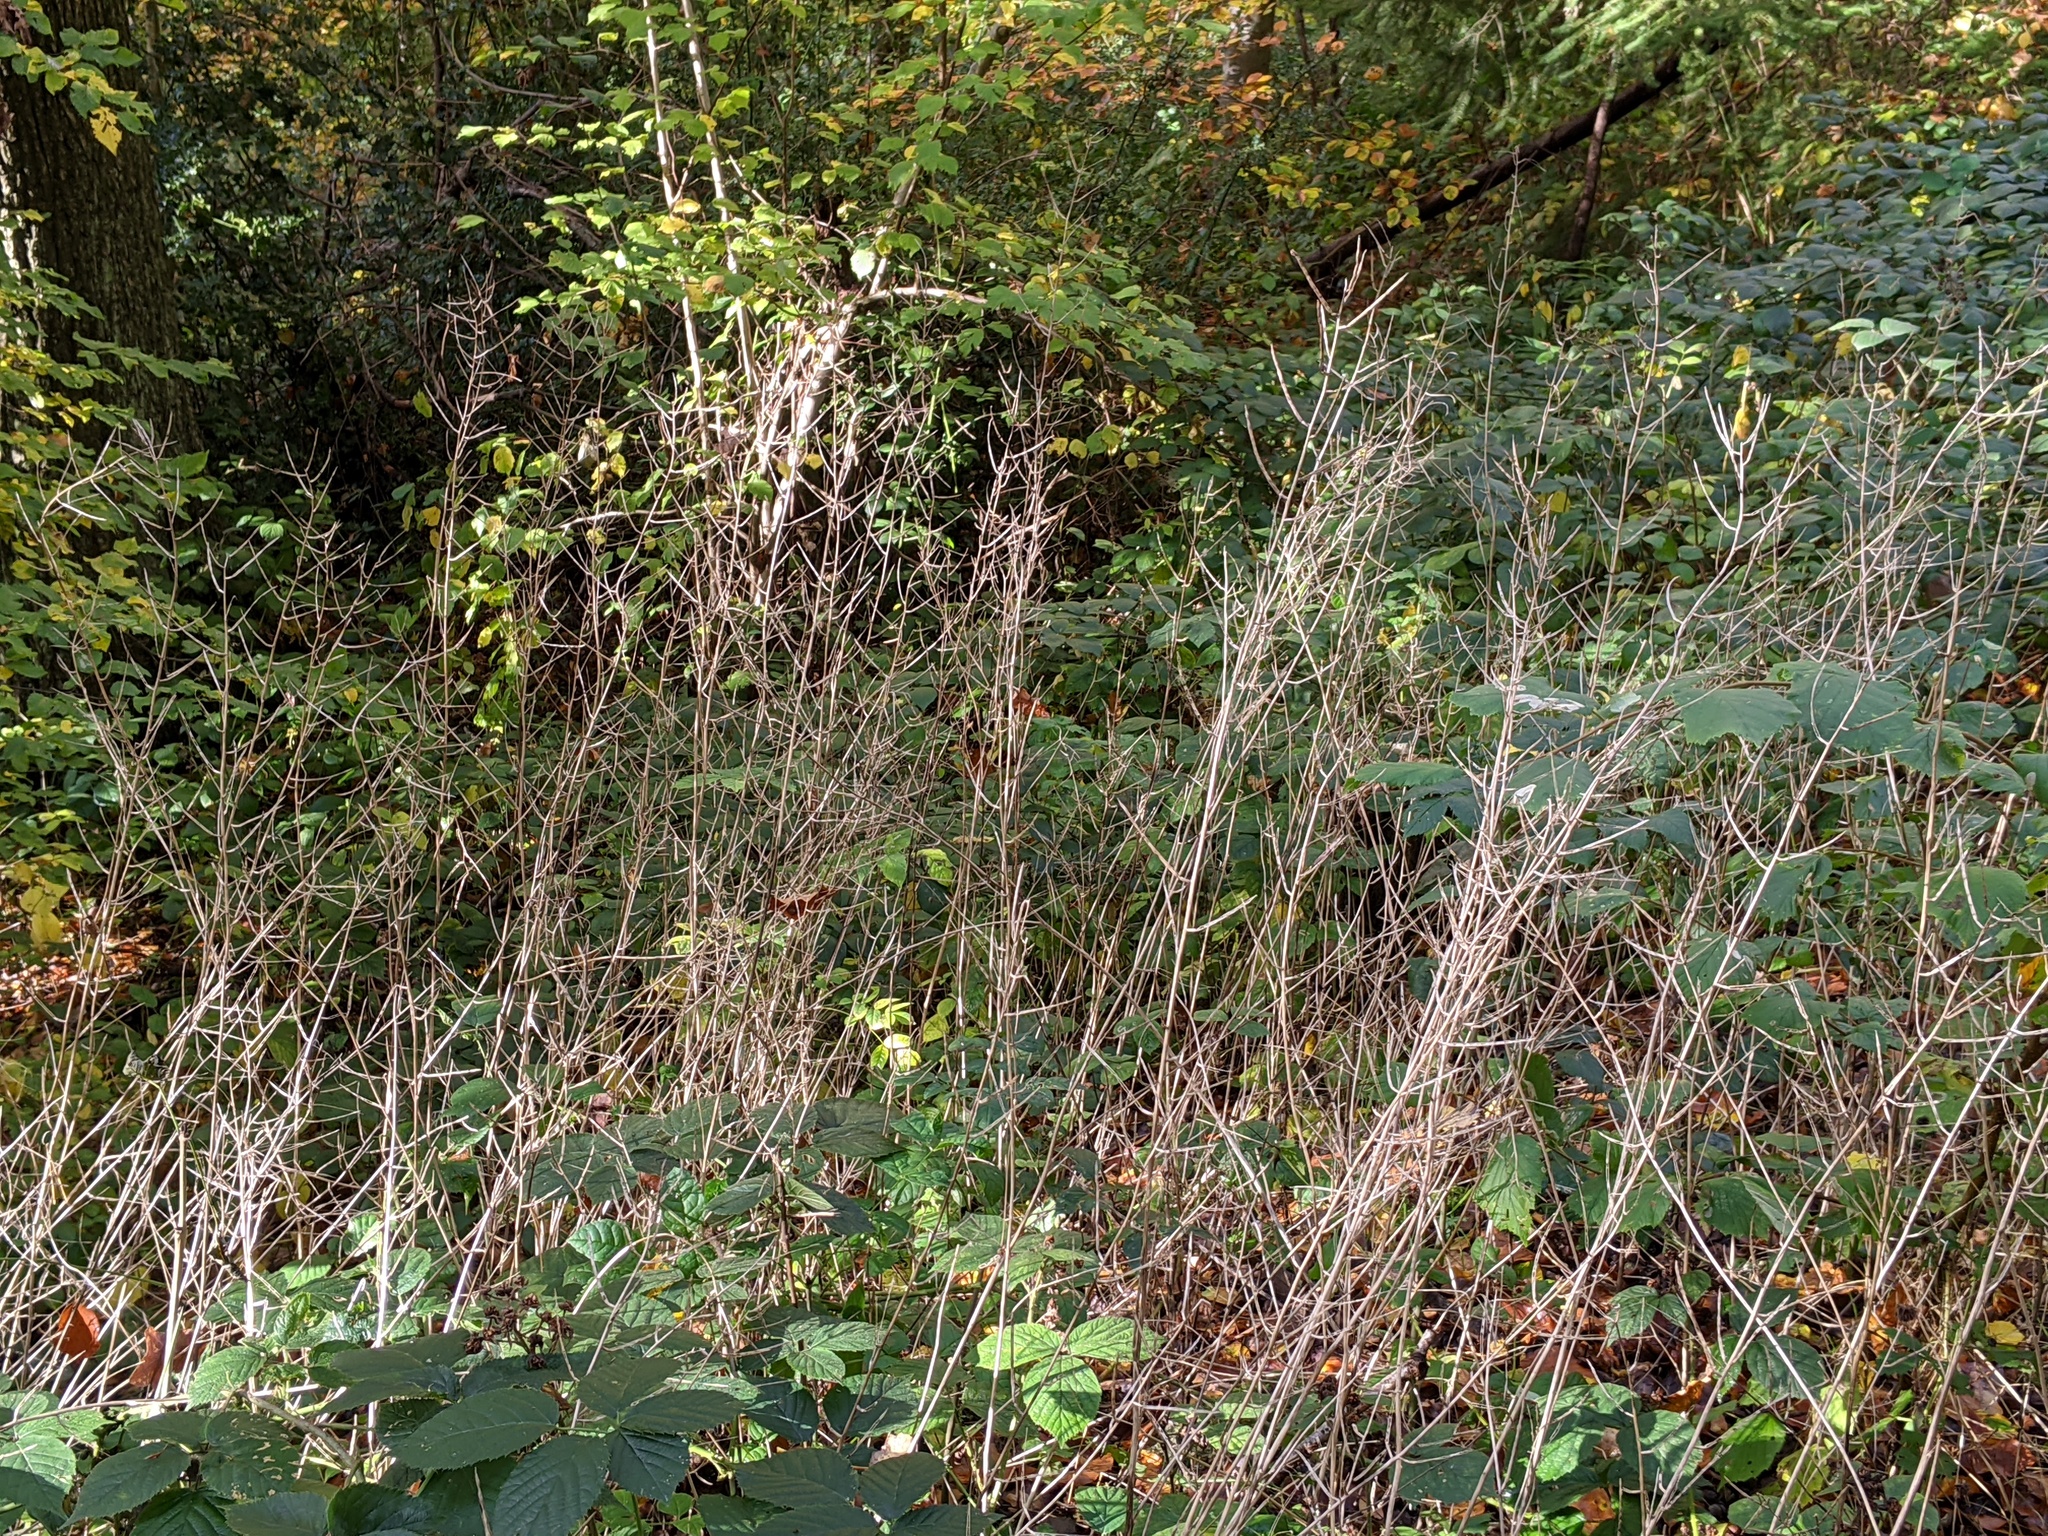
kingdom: Plantae
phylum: Tracheophyta
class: Magnoliopsida
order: Brassicales
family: Brassicaceae
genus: Alliaria
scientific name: Alliaria petiolata
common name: Garlic mustard
